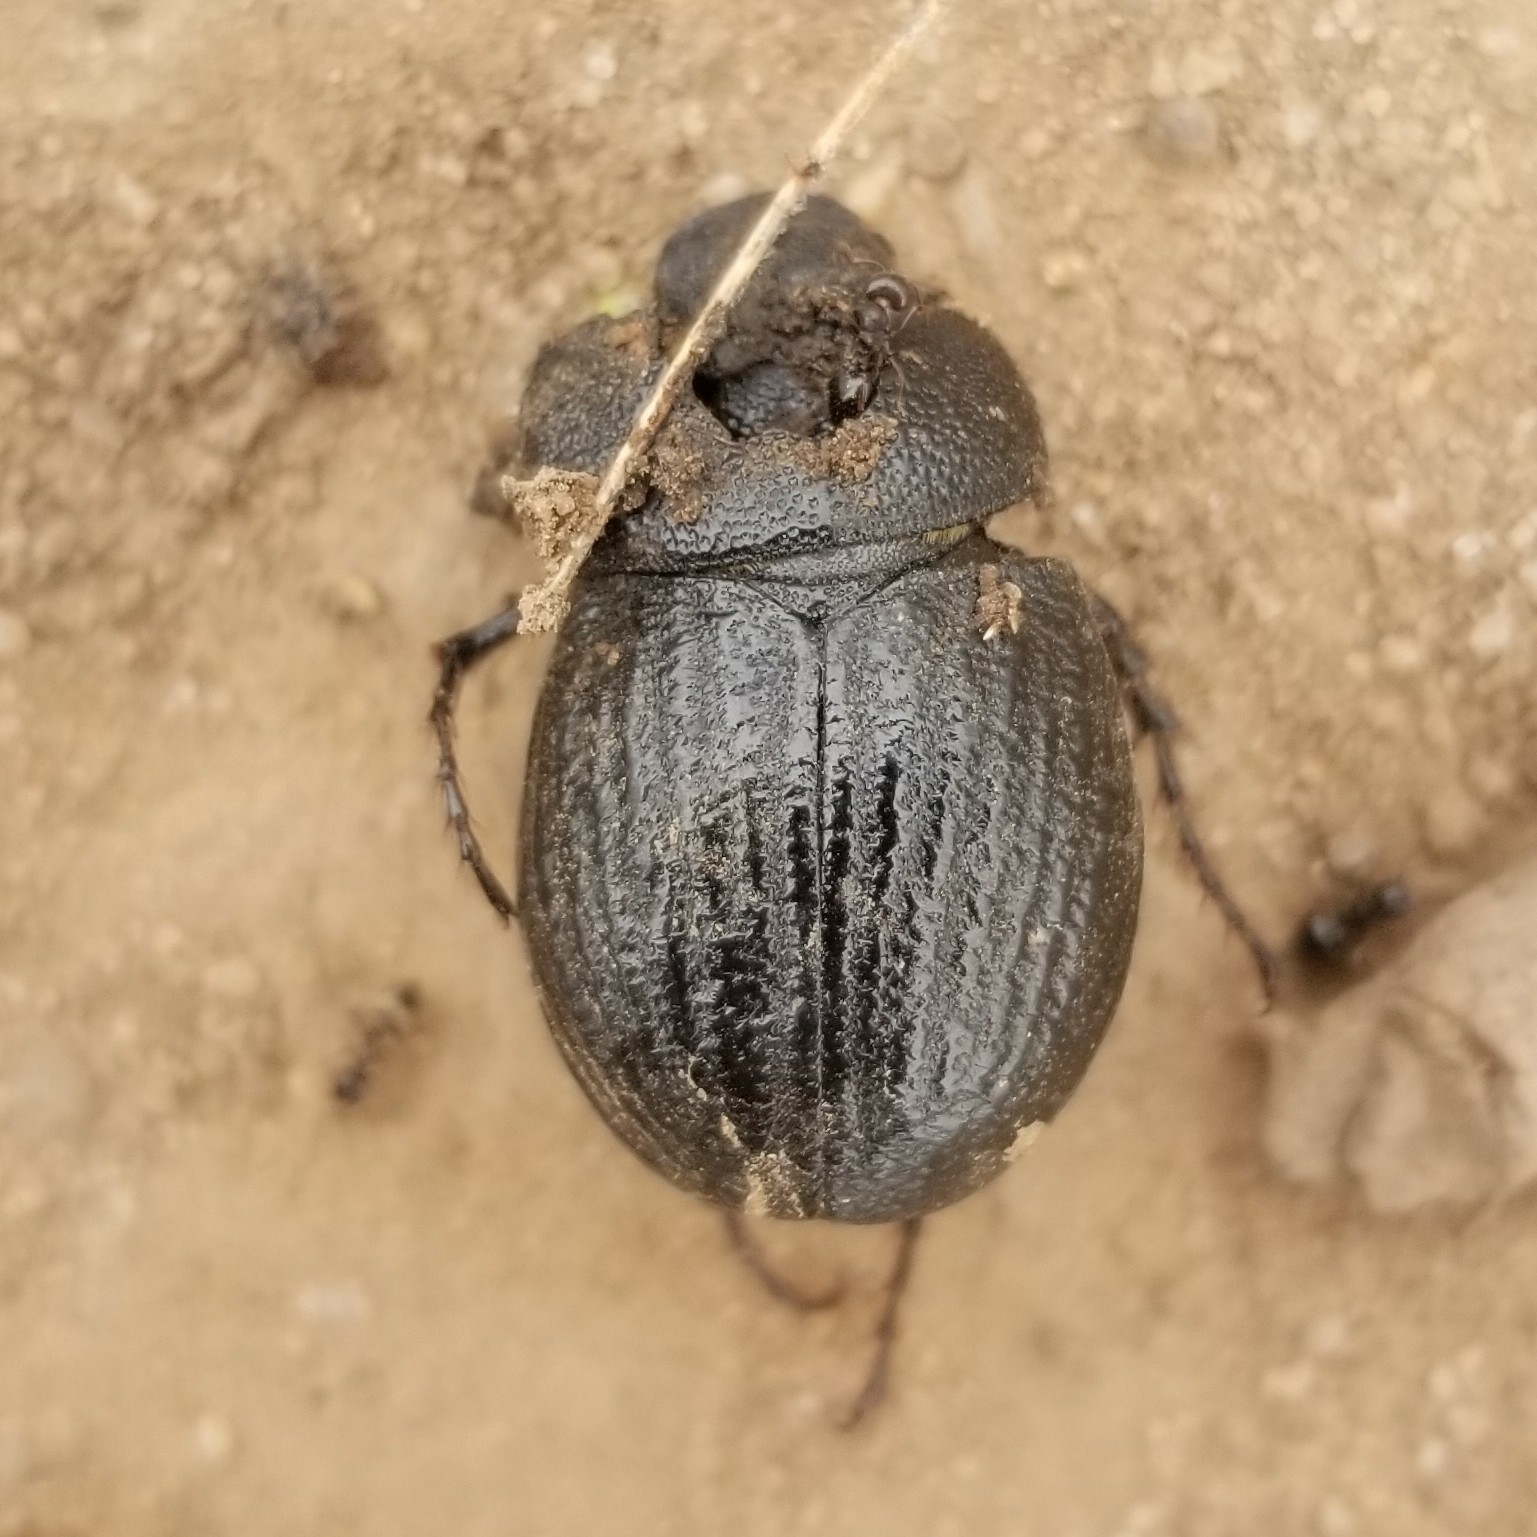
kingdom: Animalia
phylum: Arthropoda
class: Insecta
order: Coleoptera
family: Scarabaeidae
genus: Phyllophaga
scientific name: Phyllophaga cribrosa
